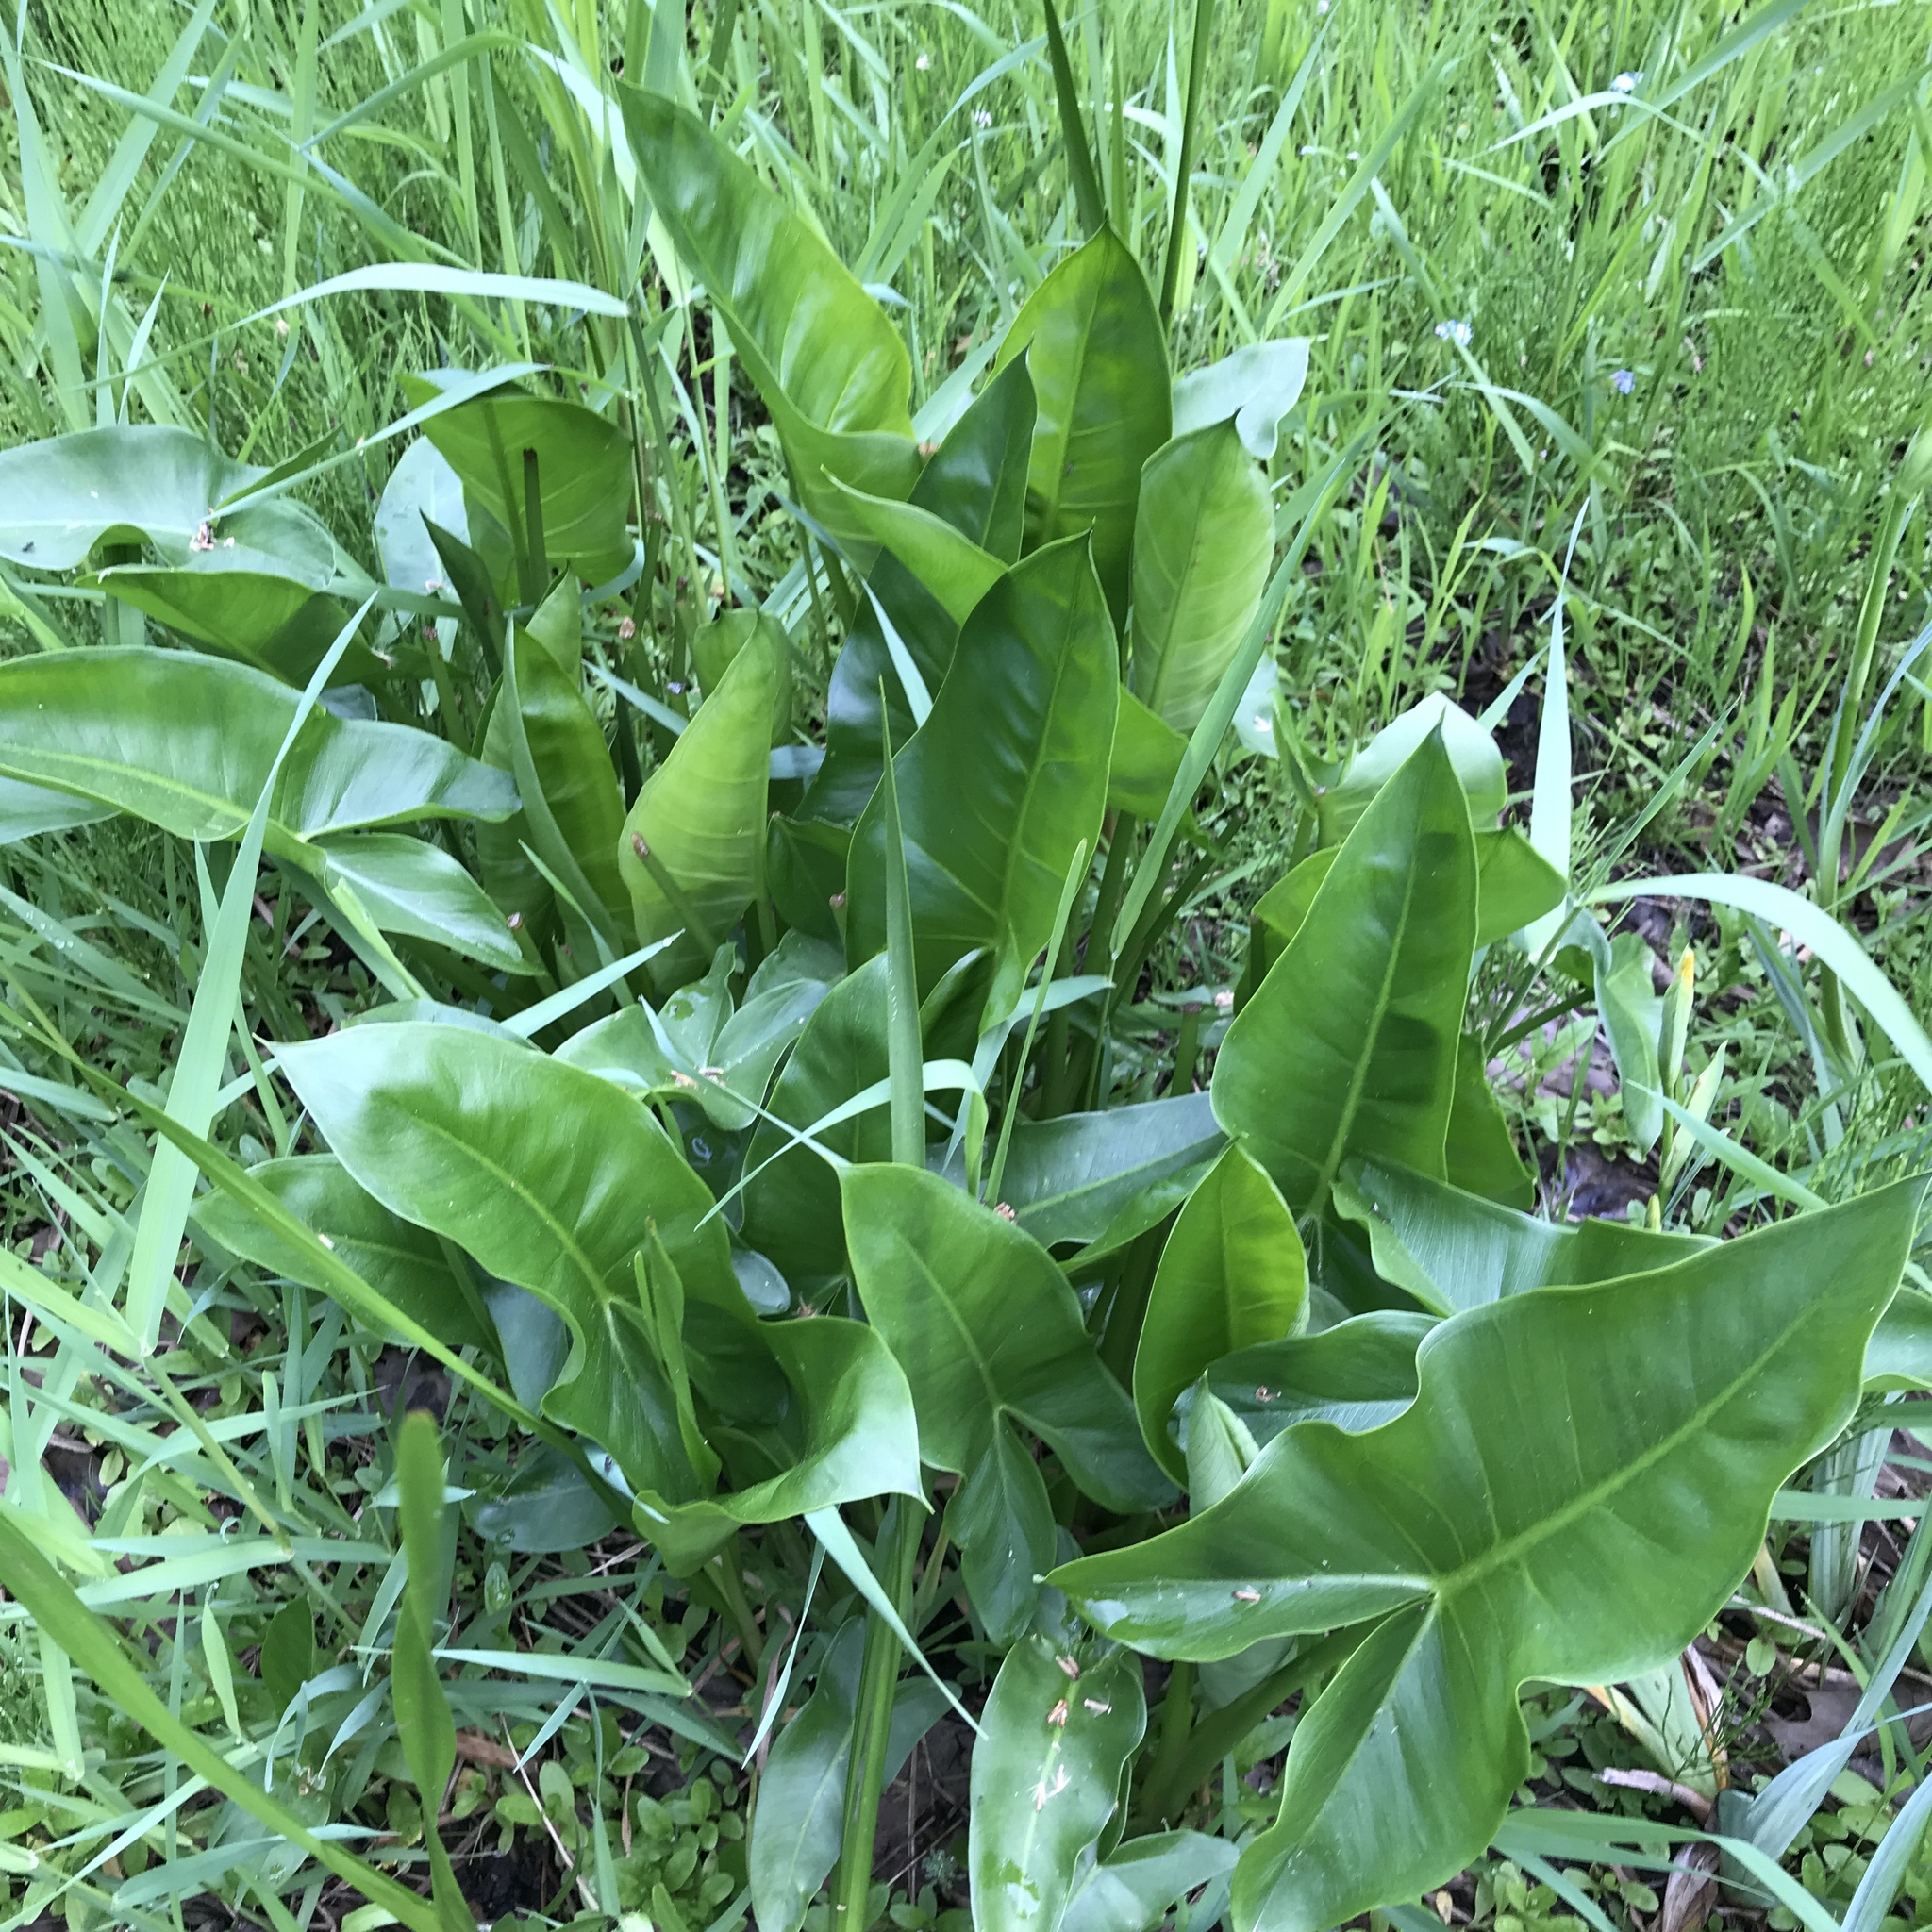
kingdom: Plantae
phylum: Tracheophyta
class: Liliopsida
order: Alismatales
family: Araceae
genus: Peltandra
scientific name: Peltandra virginica
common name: Arrow arum
